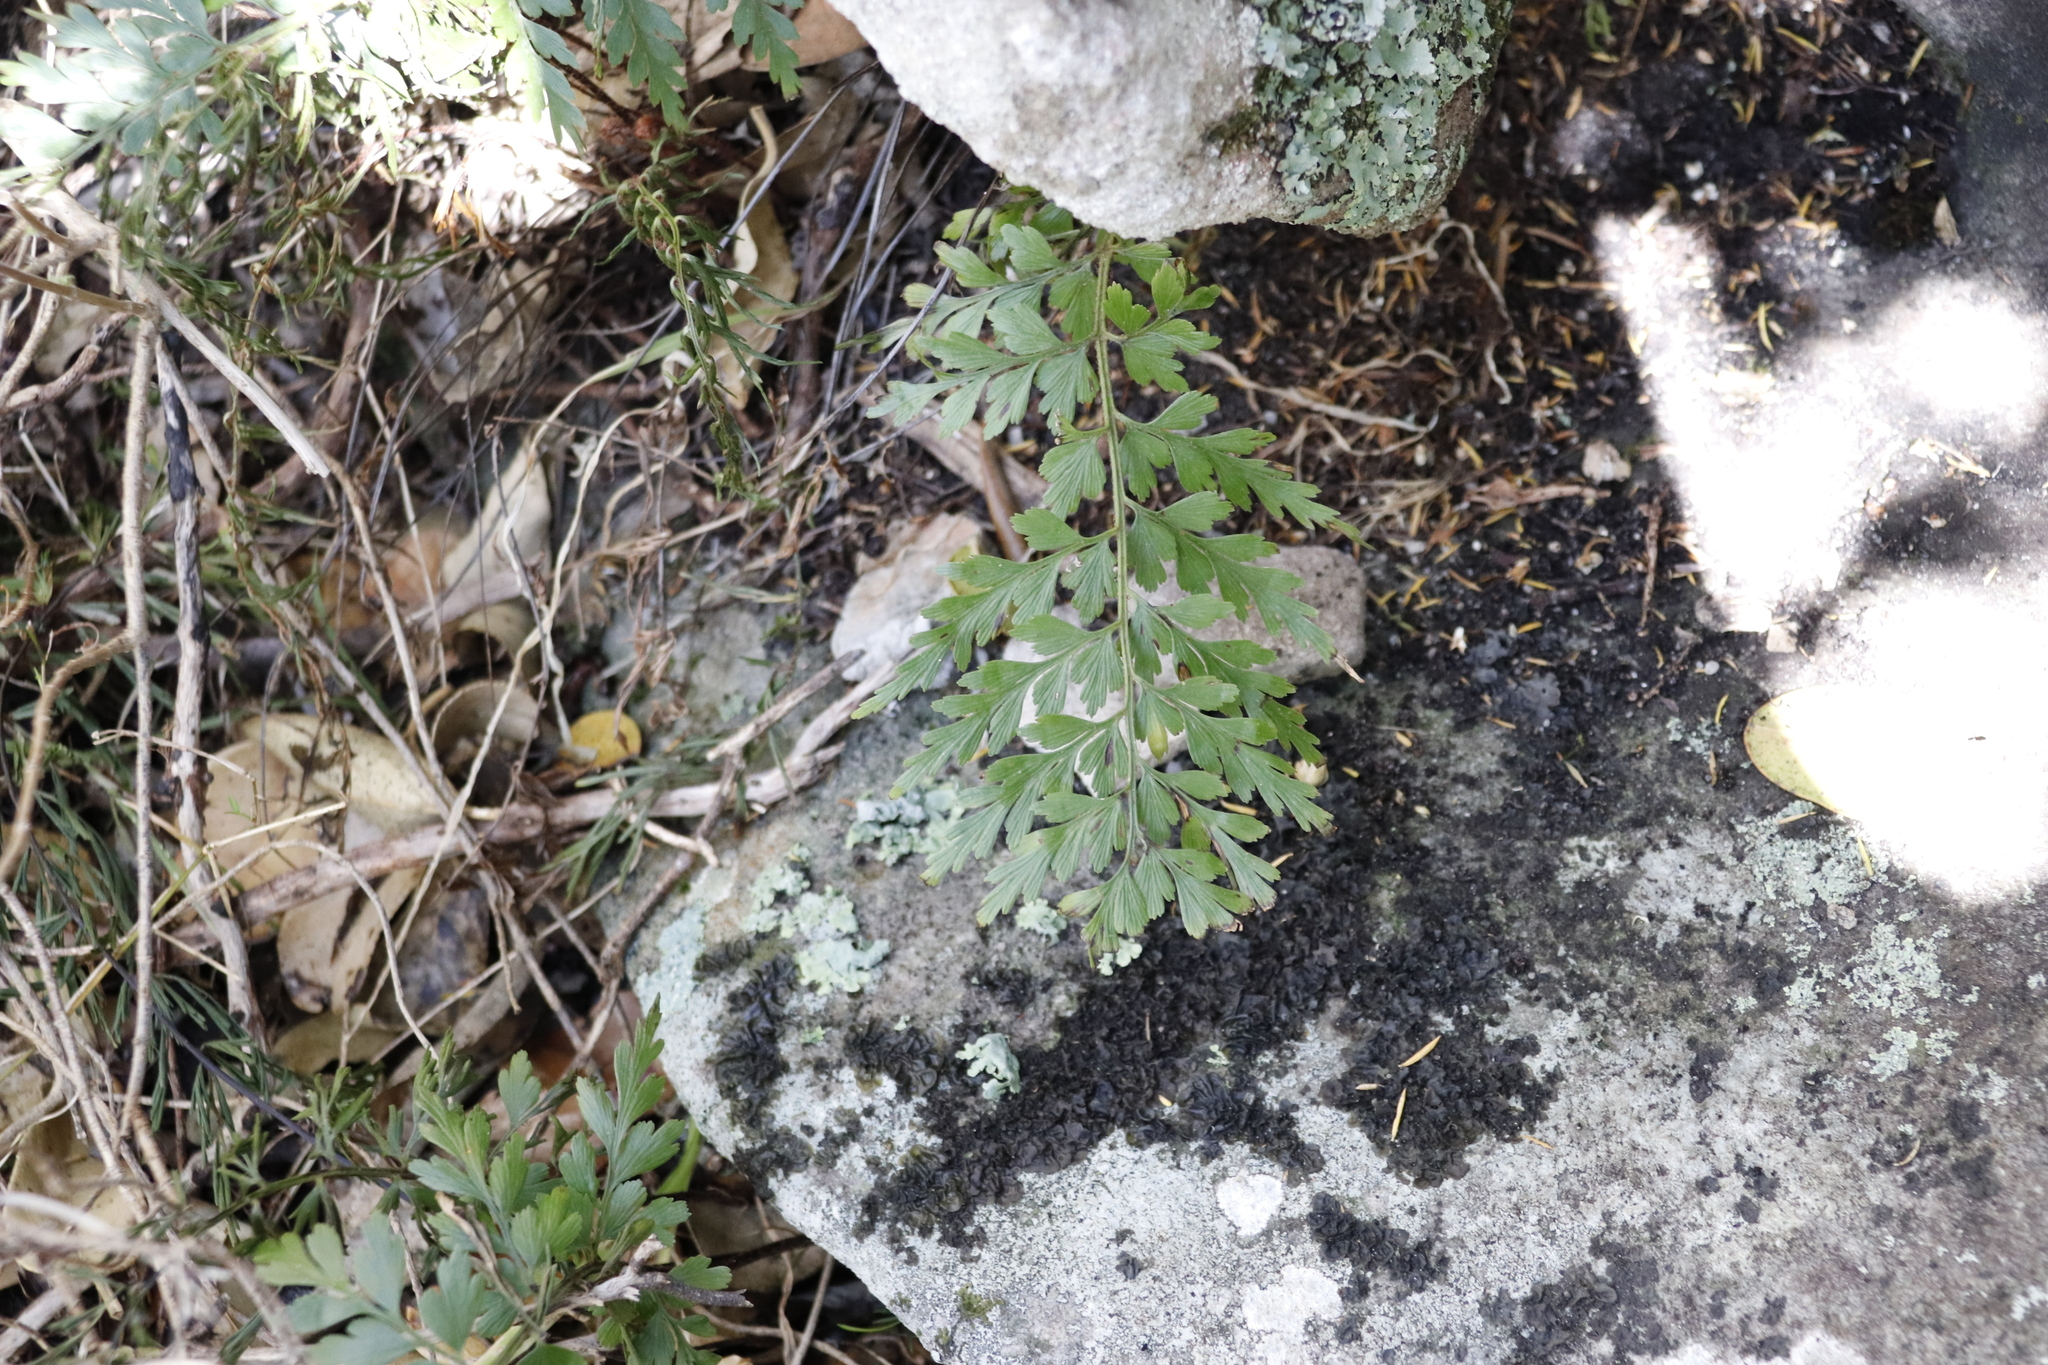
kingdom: Plantae
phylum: Tracheophyta
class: Polypodiopsida
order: Polypodiales
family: Aspleniaceae
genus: Asplenium
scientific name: Asplenium aethiopicum
